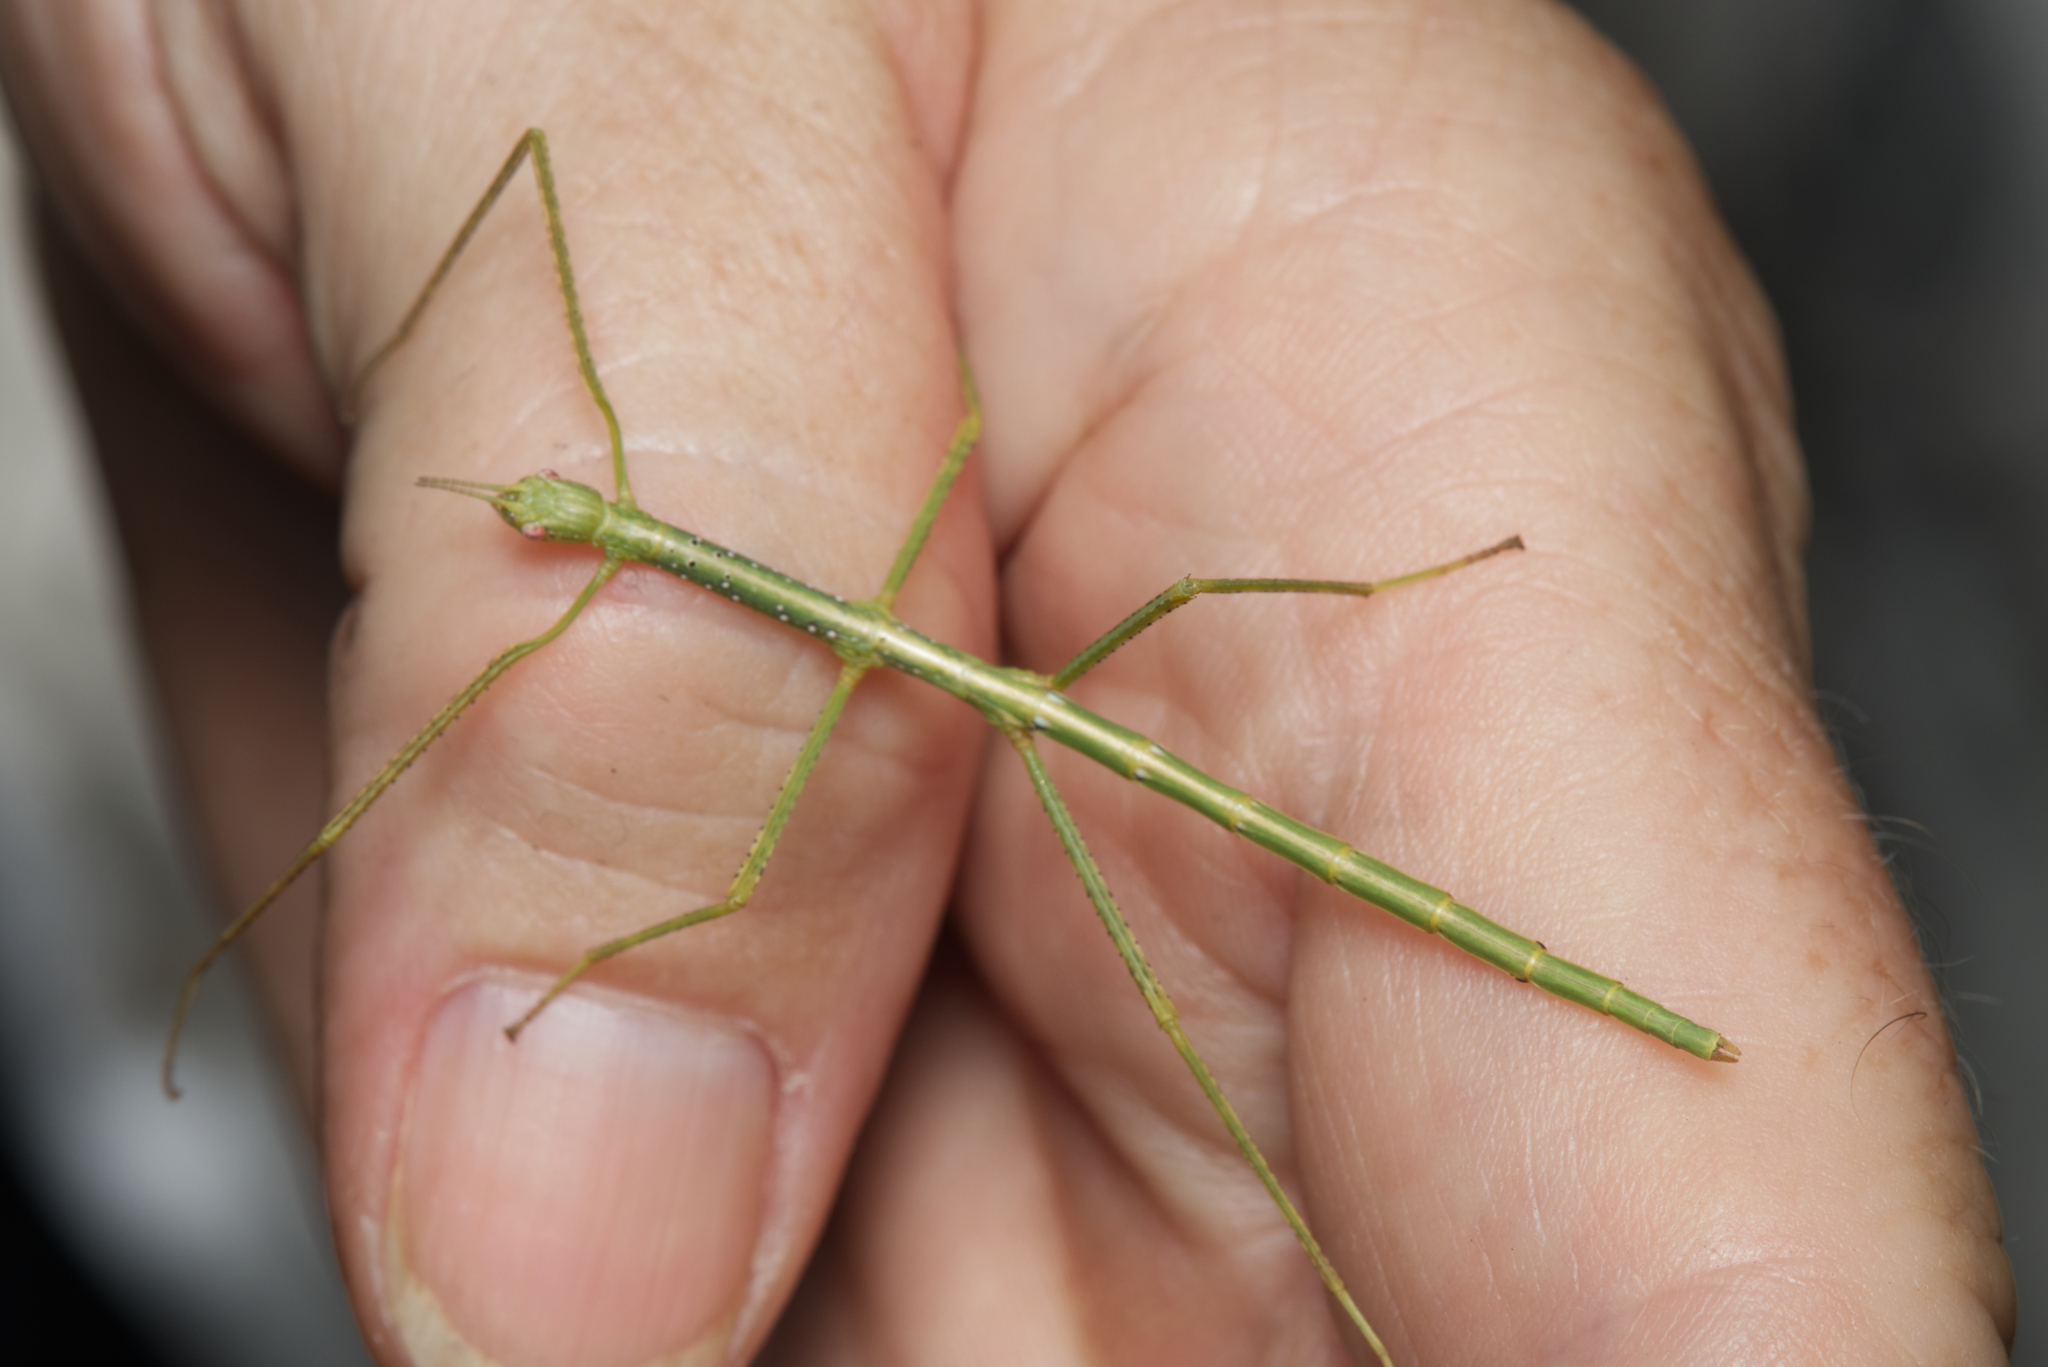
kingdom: Animalia
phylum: Arthropoda
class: Insecta
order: Phasmida
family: Phasmatidae
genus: Anchiale
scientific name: Anchiale austrotessulata
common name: Tessellated stick-insect
